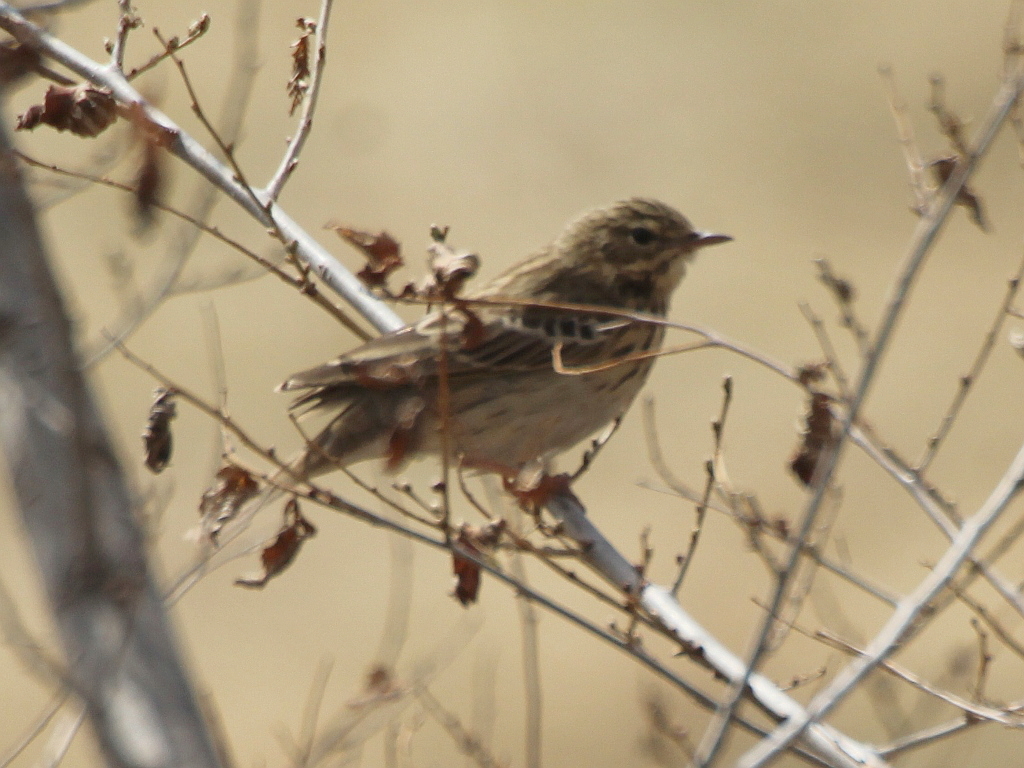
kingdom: Animalia
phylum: Chordata
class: Aves
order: Passeriformes
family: Motacillidae
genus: Anthus
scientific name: Anthus trivialis
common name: Tree pipit
